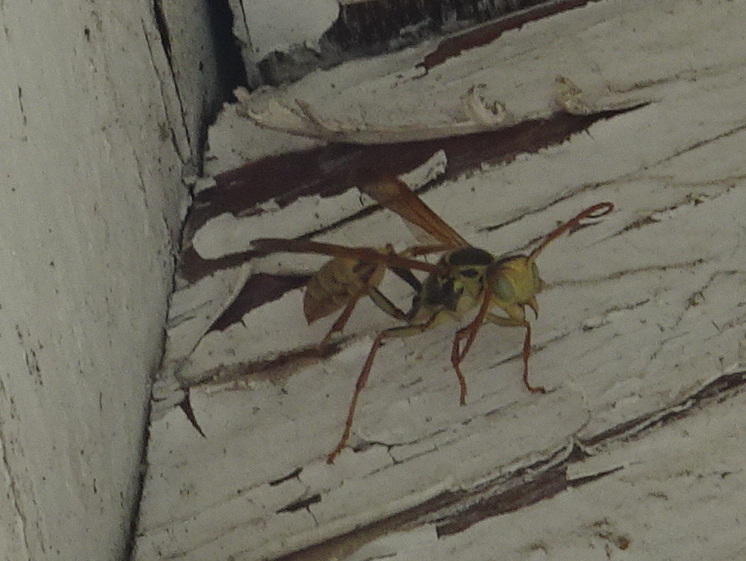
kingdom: Animalia
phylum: Arthropoda
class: Insecta
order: Hymenoptera
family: Vespidae
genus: Mischocyttarus
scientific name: Mischocyttarus flavitarsis
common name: Wasp
